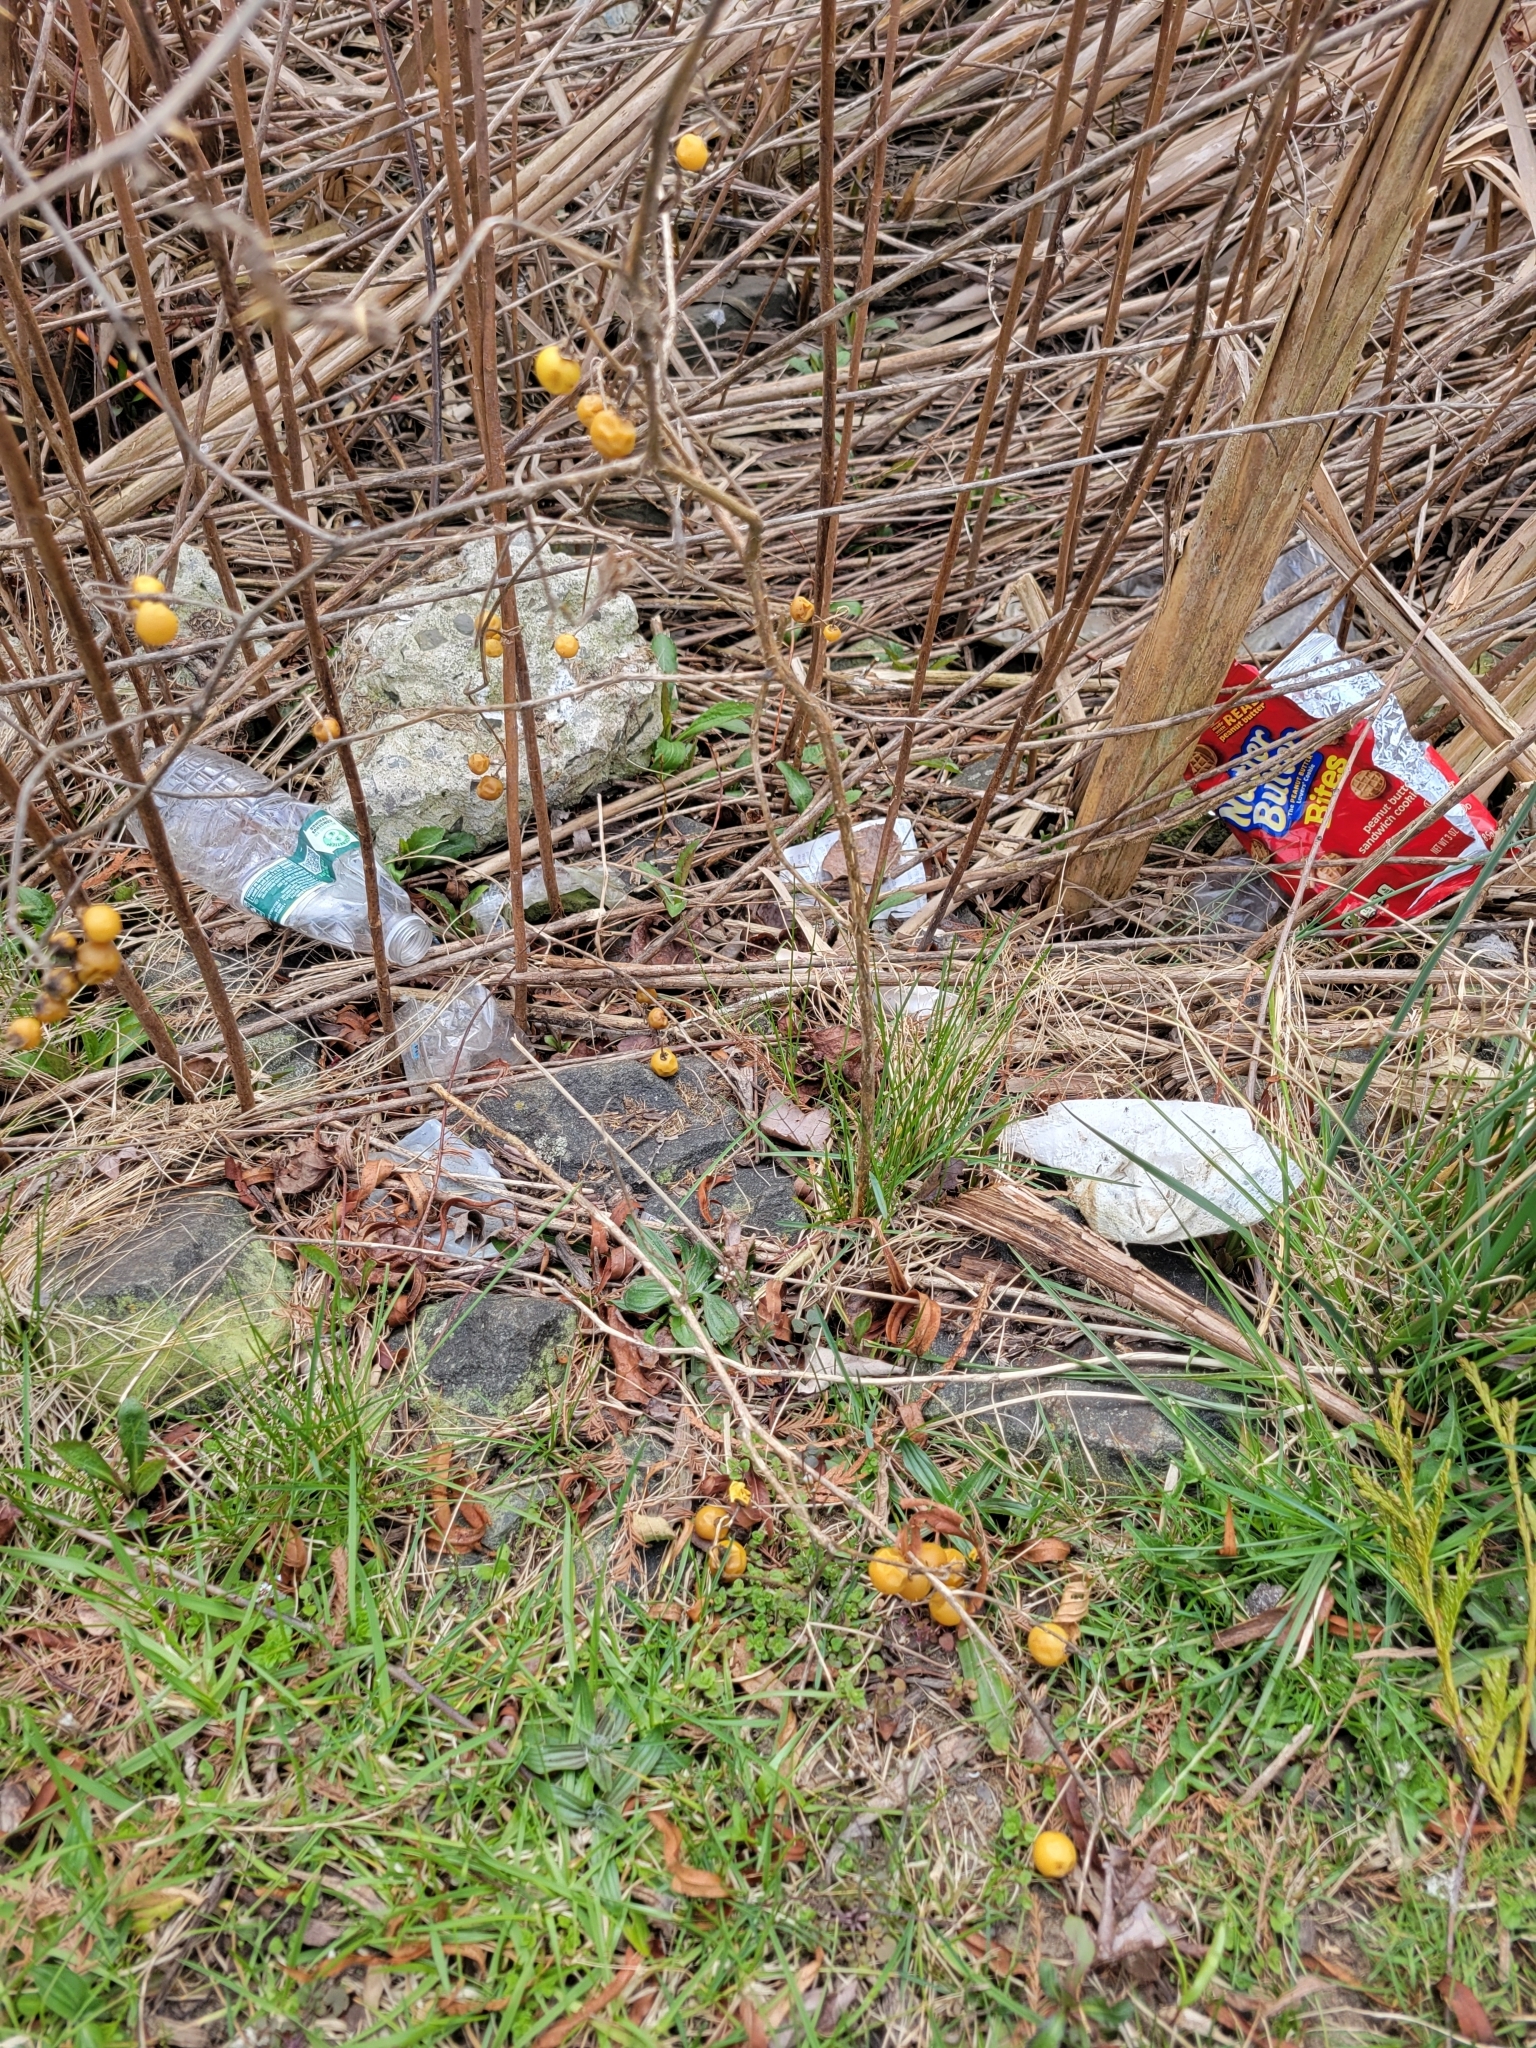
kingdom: Plantae
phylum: Tracheophyta
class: Magnoliopsida
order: Solanales
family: Solanaceae
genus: Solanum
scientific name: Solanum carolinense
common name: Horse-nettle
